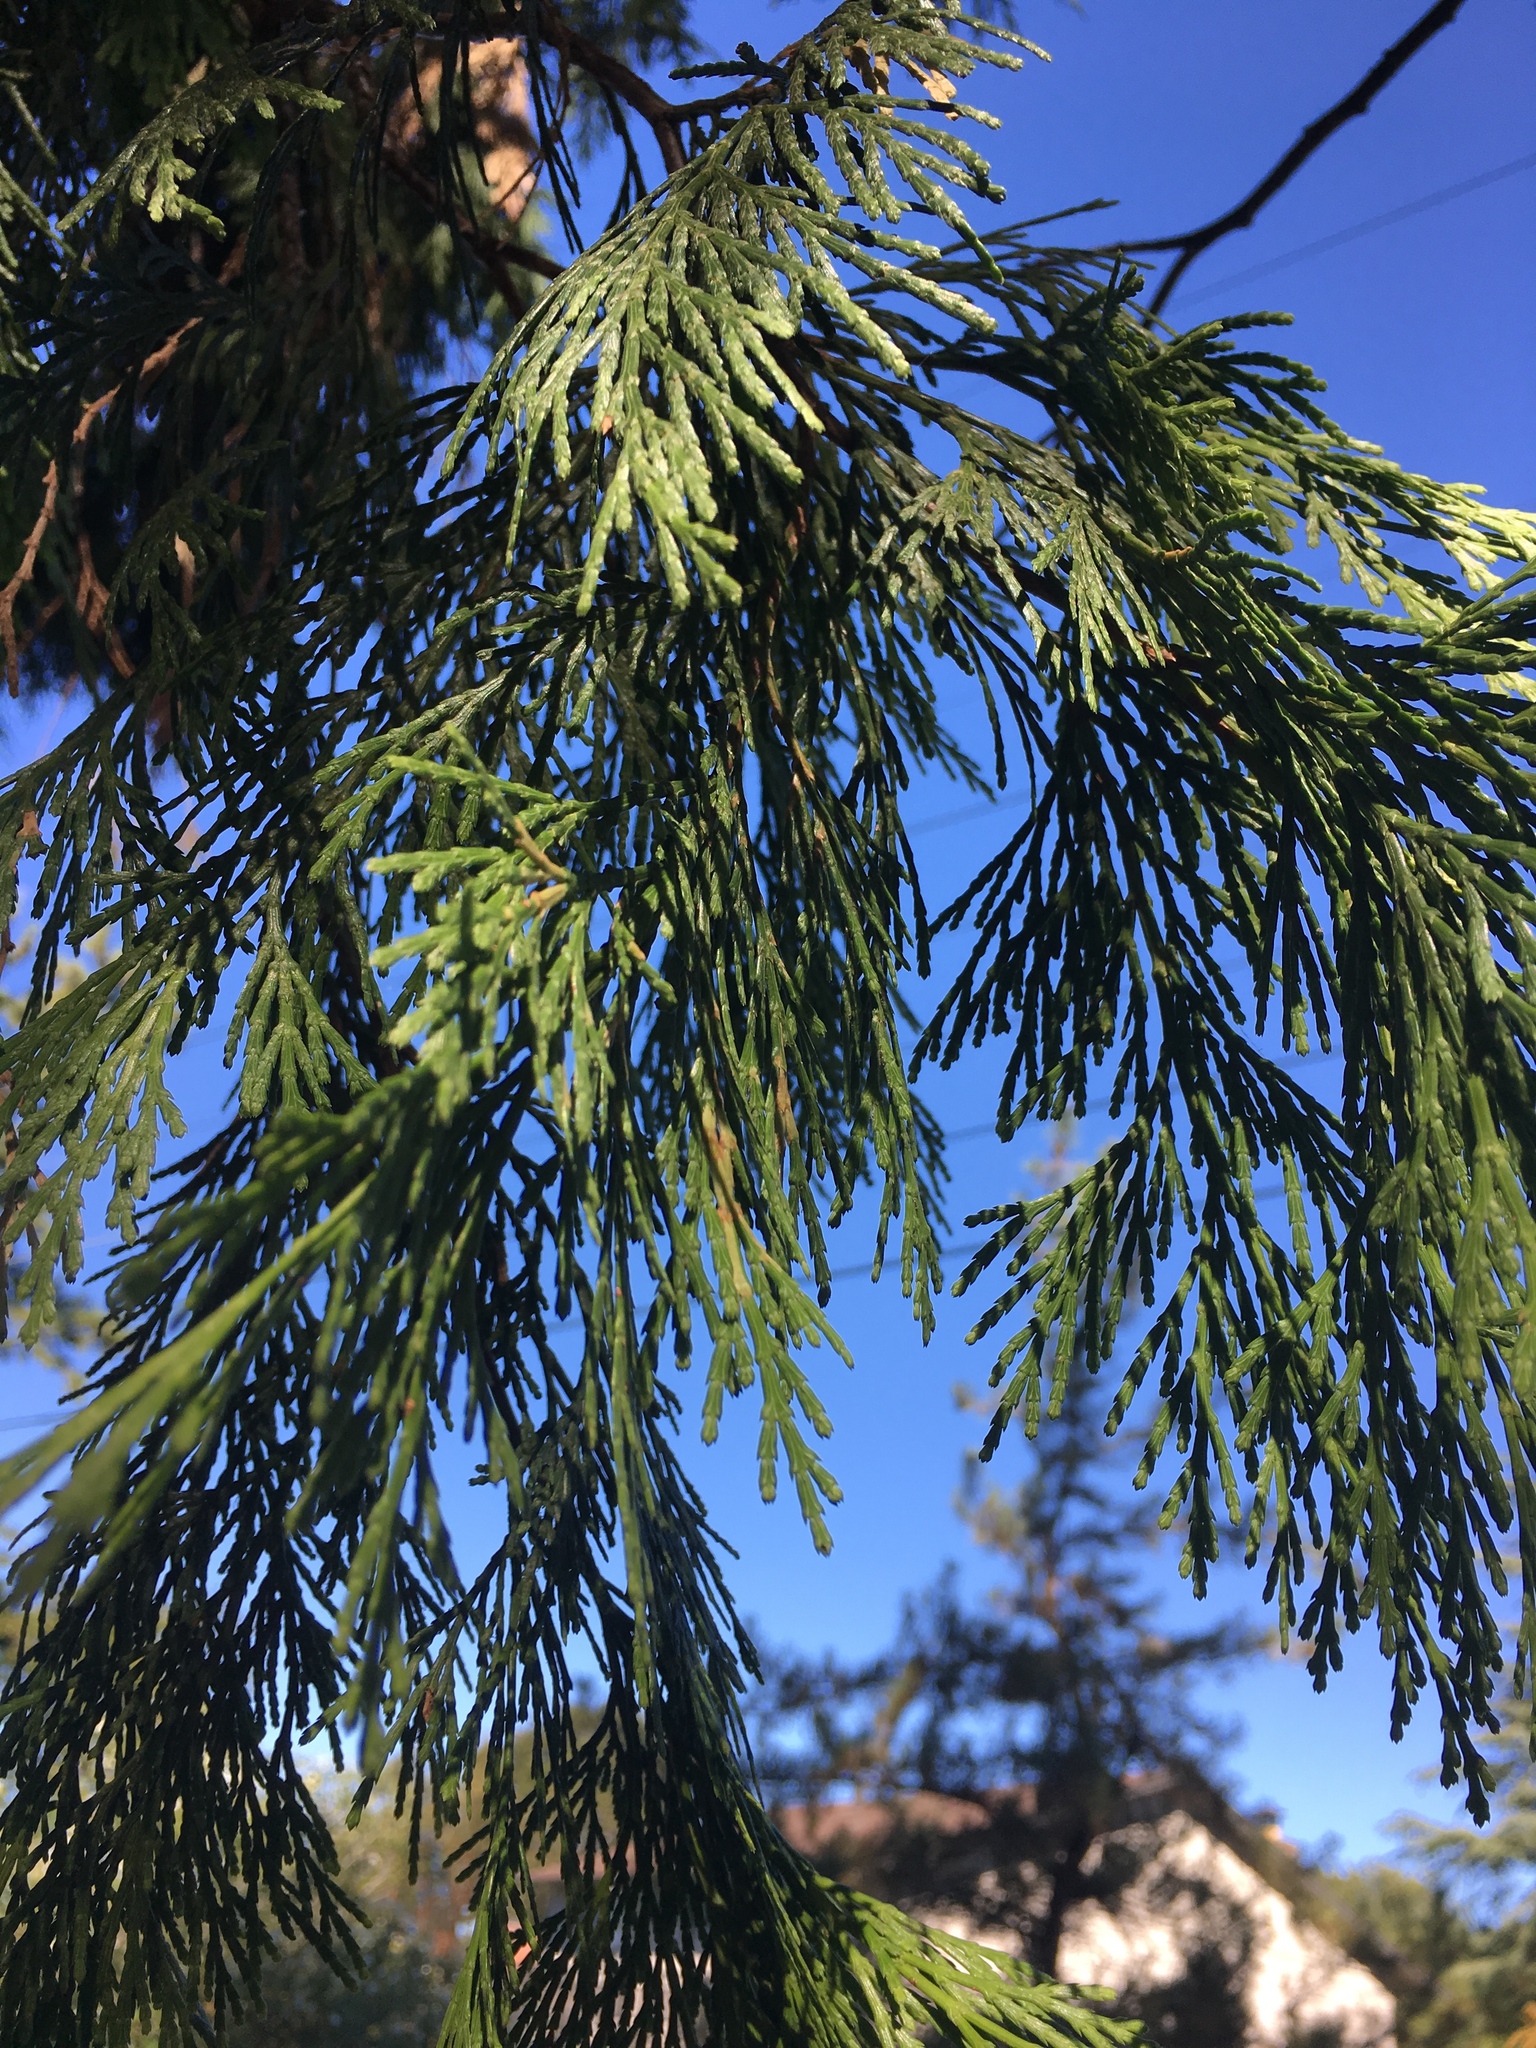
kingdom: Plantae
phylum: Tracheophyta
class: Pinopsida
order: Pinales
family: Cupressaceae
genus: Calocedrus
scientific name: Calocedrus decurrens
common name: Californian incense-cedar
